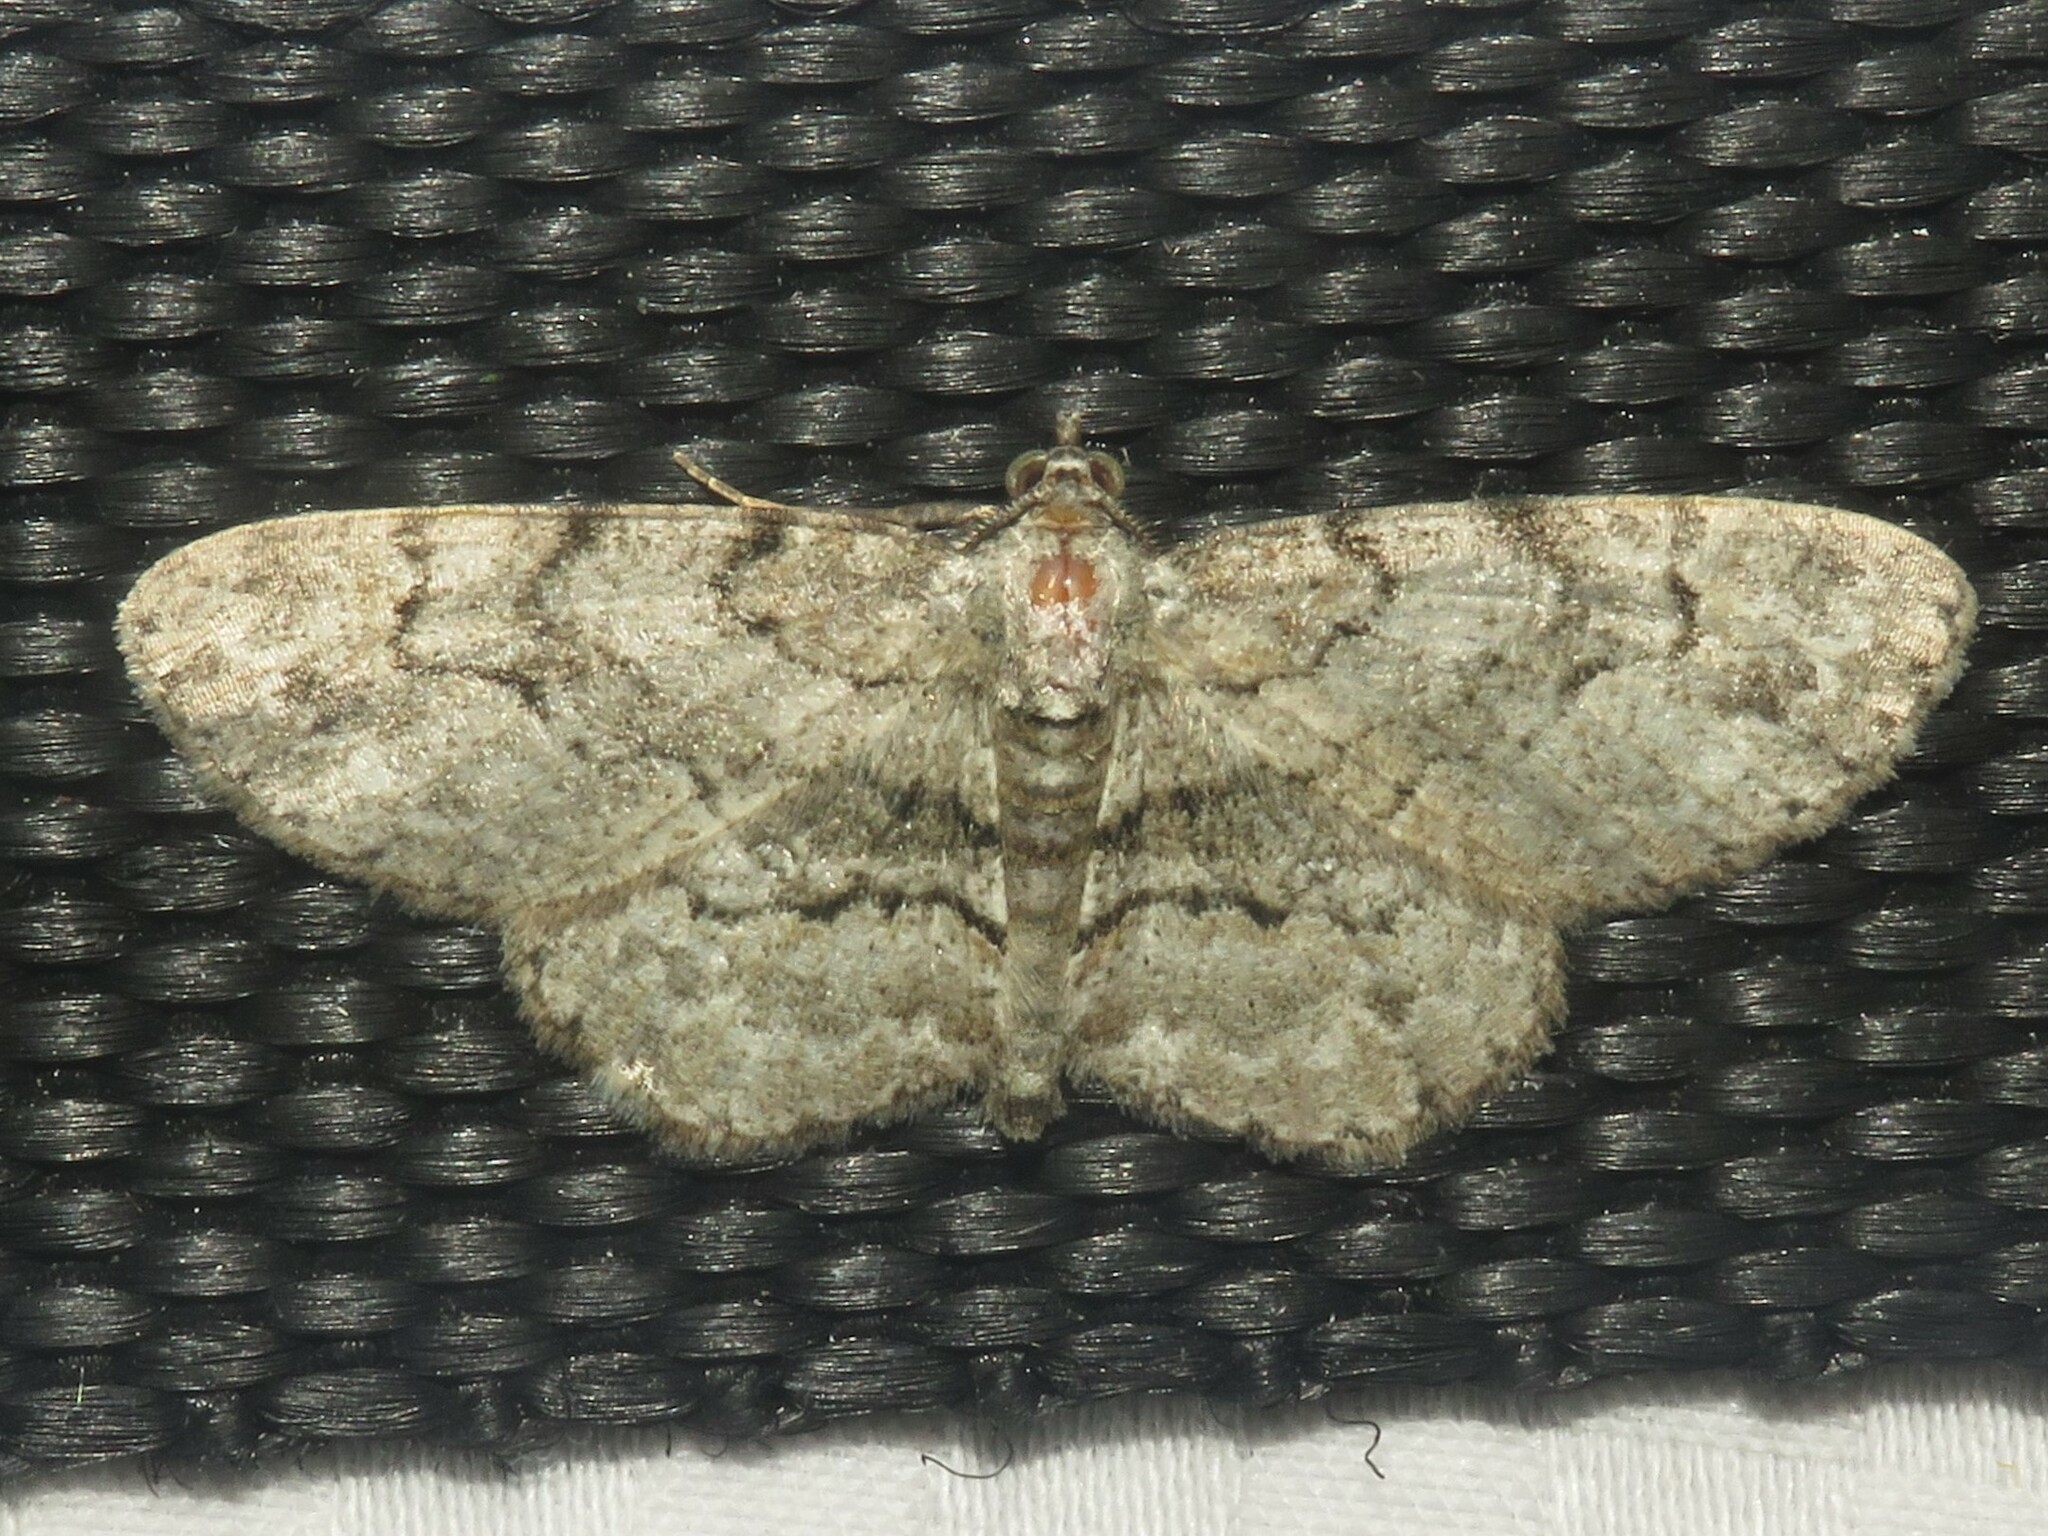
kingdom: Animalia
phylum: Arthropoda
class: Insecta
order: Lepidoptera
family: Geometridae
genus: Iridopsis
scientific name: Iridopsis ephyraria
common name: Pale-winged gray
